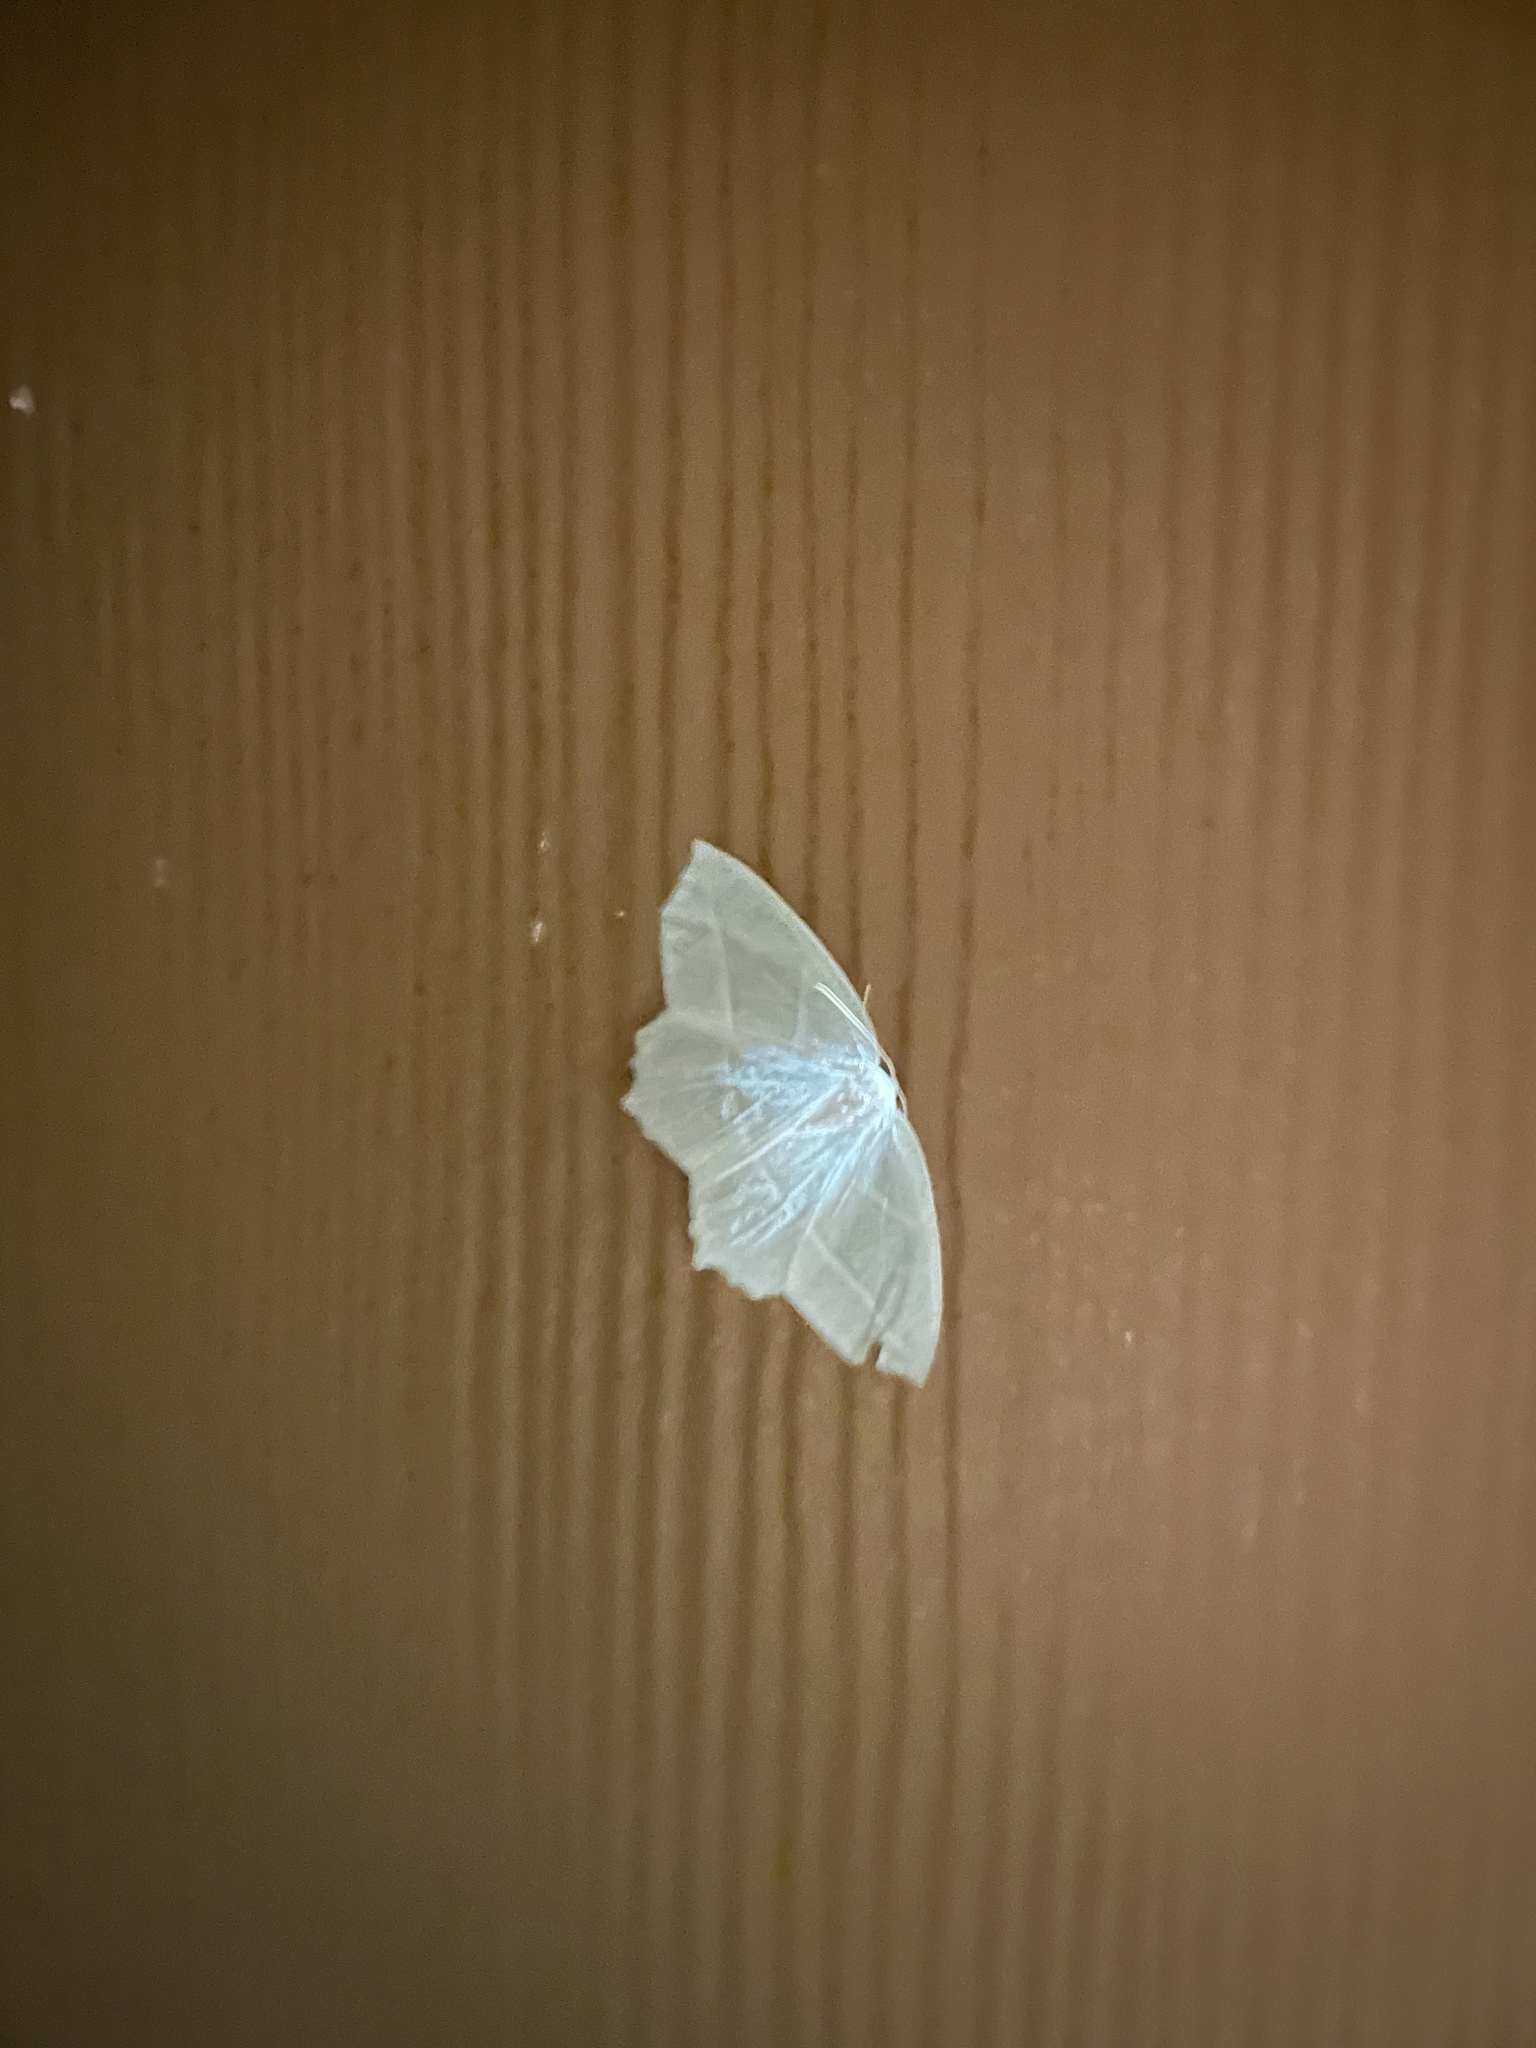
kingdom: Animalia
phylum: Arthropoda
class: Insecta
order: Lepidoptera
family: Geometridae
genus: Campaea
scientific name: Campaea perlata
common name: Fringed looper
